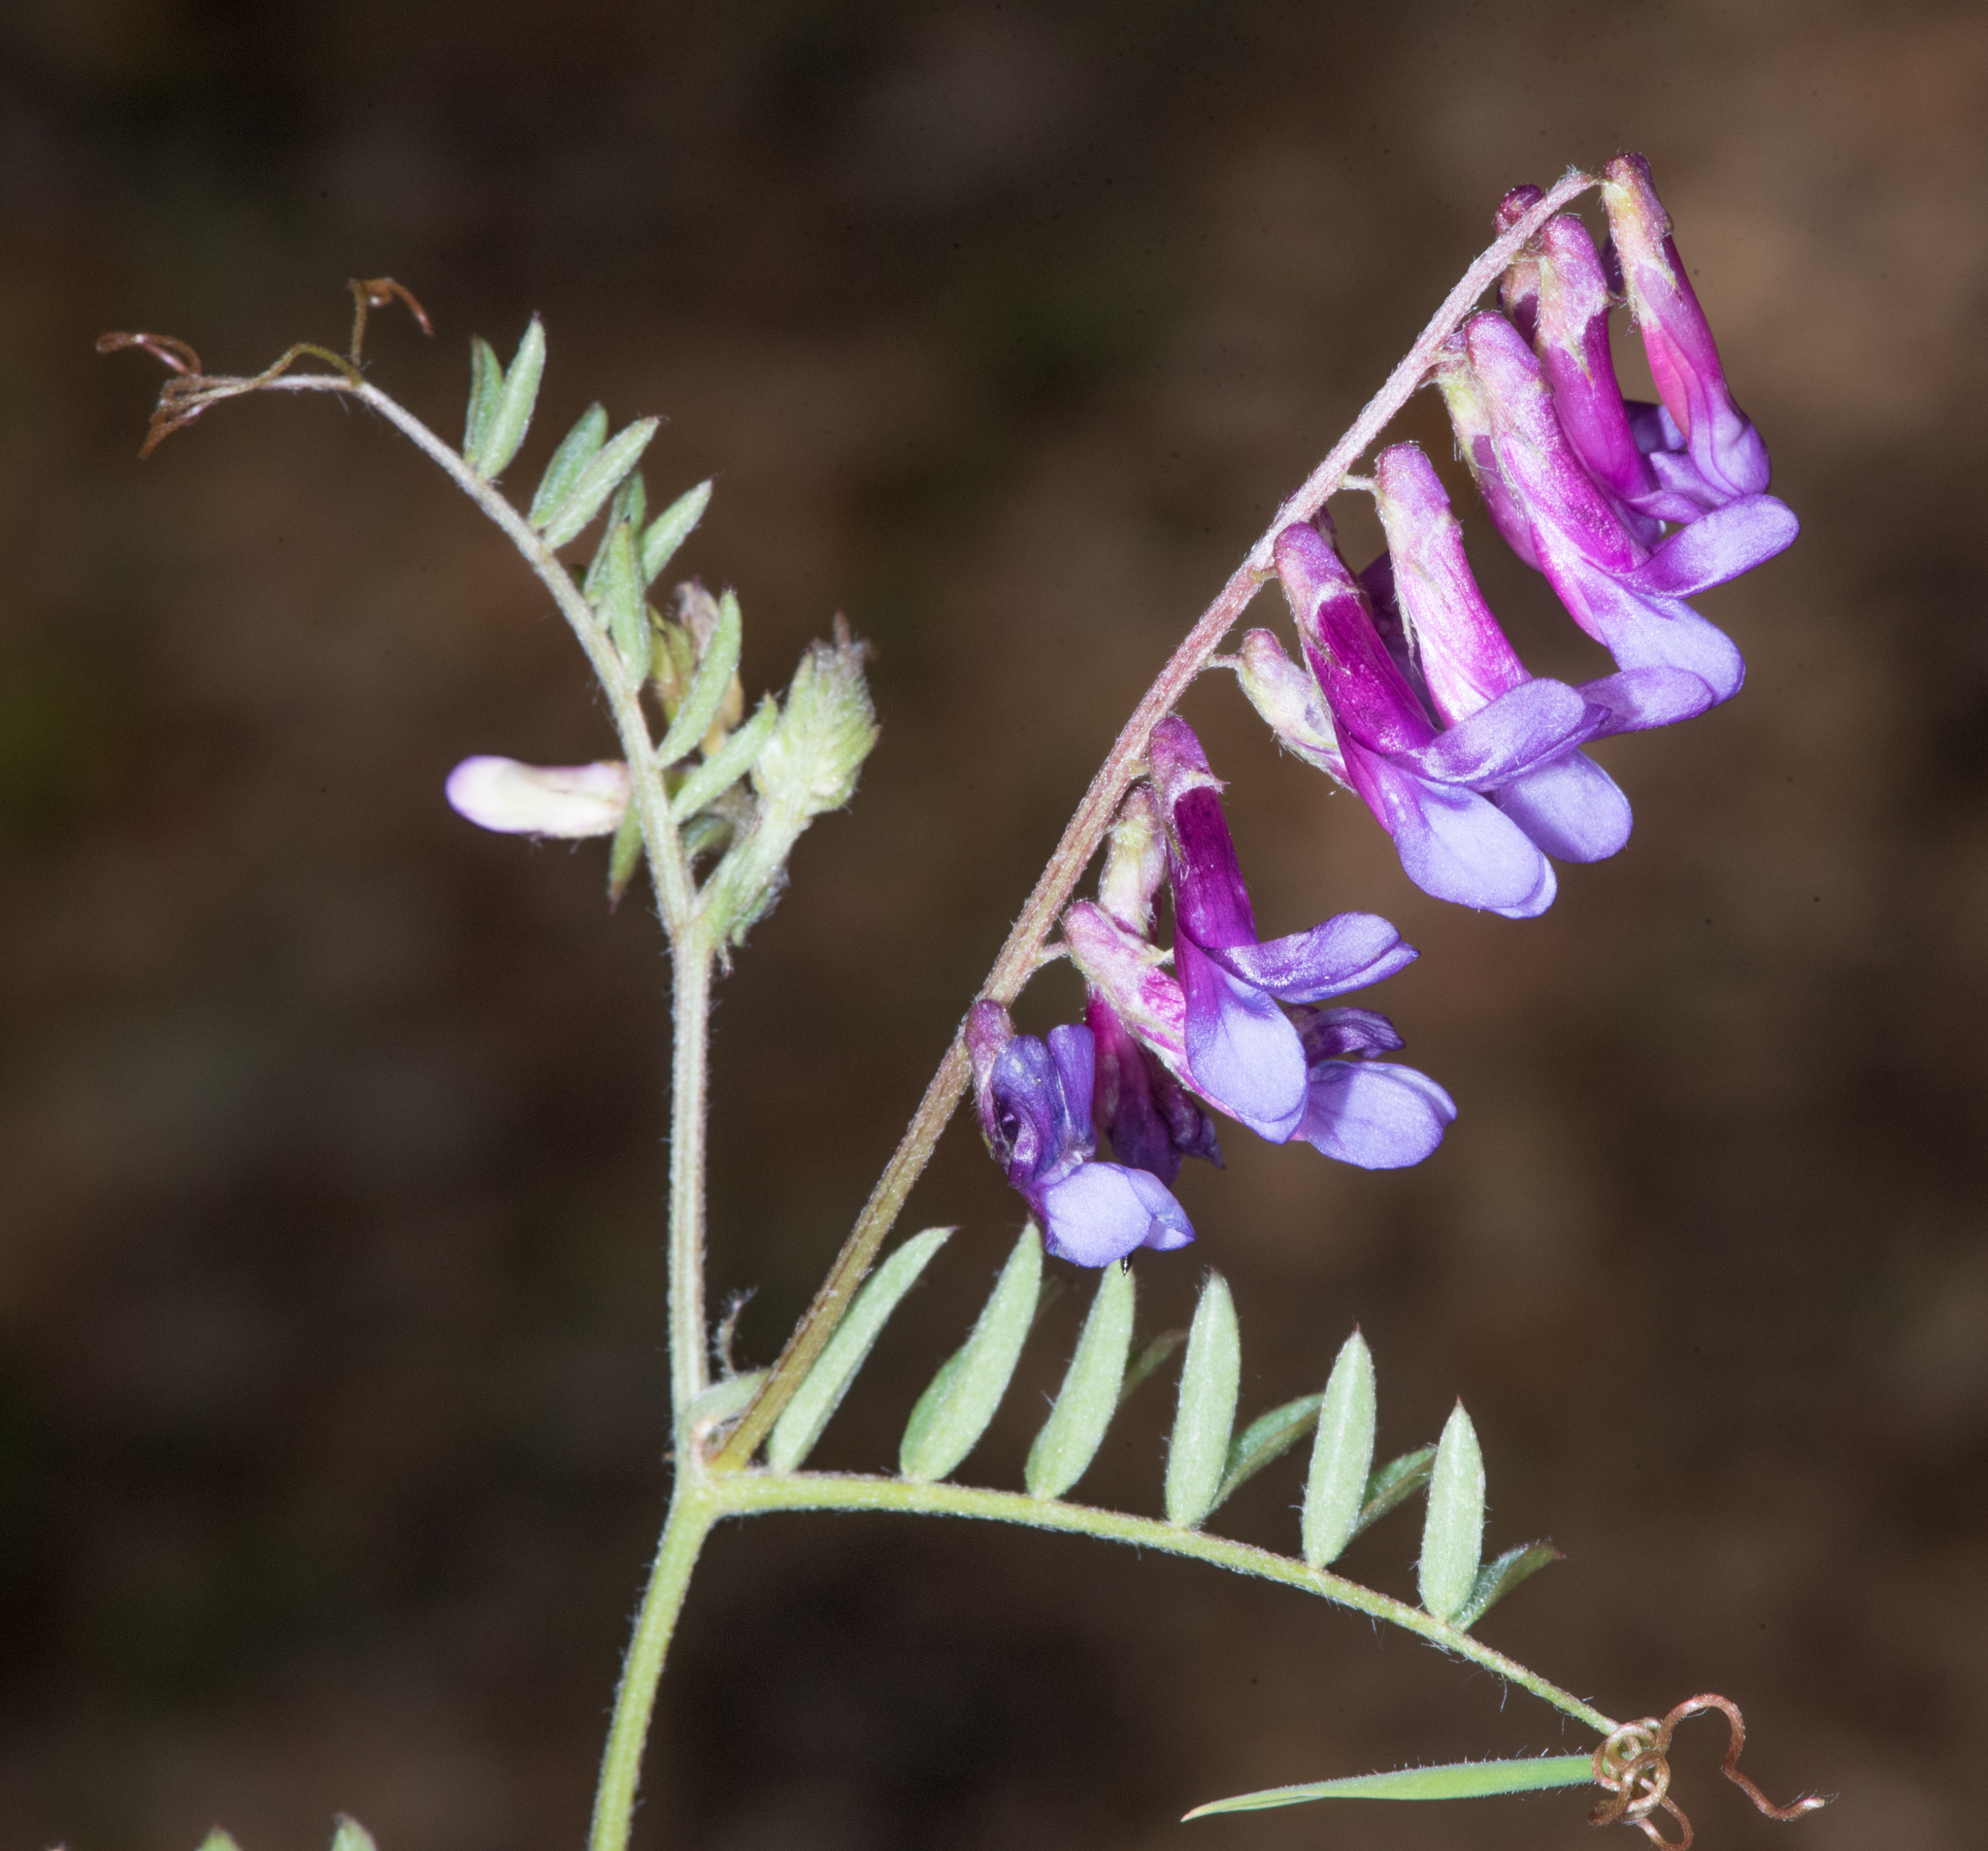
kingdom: Plantae
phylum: Tracheophyta
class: Magnoliopsida
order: Fabales
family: Fabaceae
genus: Vicia
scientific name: Vicia villosa
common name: Fodder vetch
